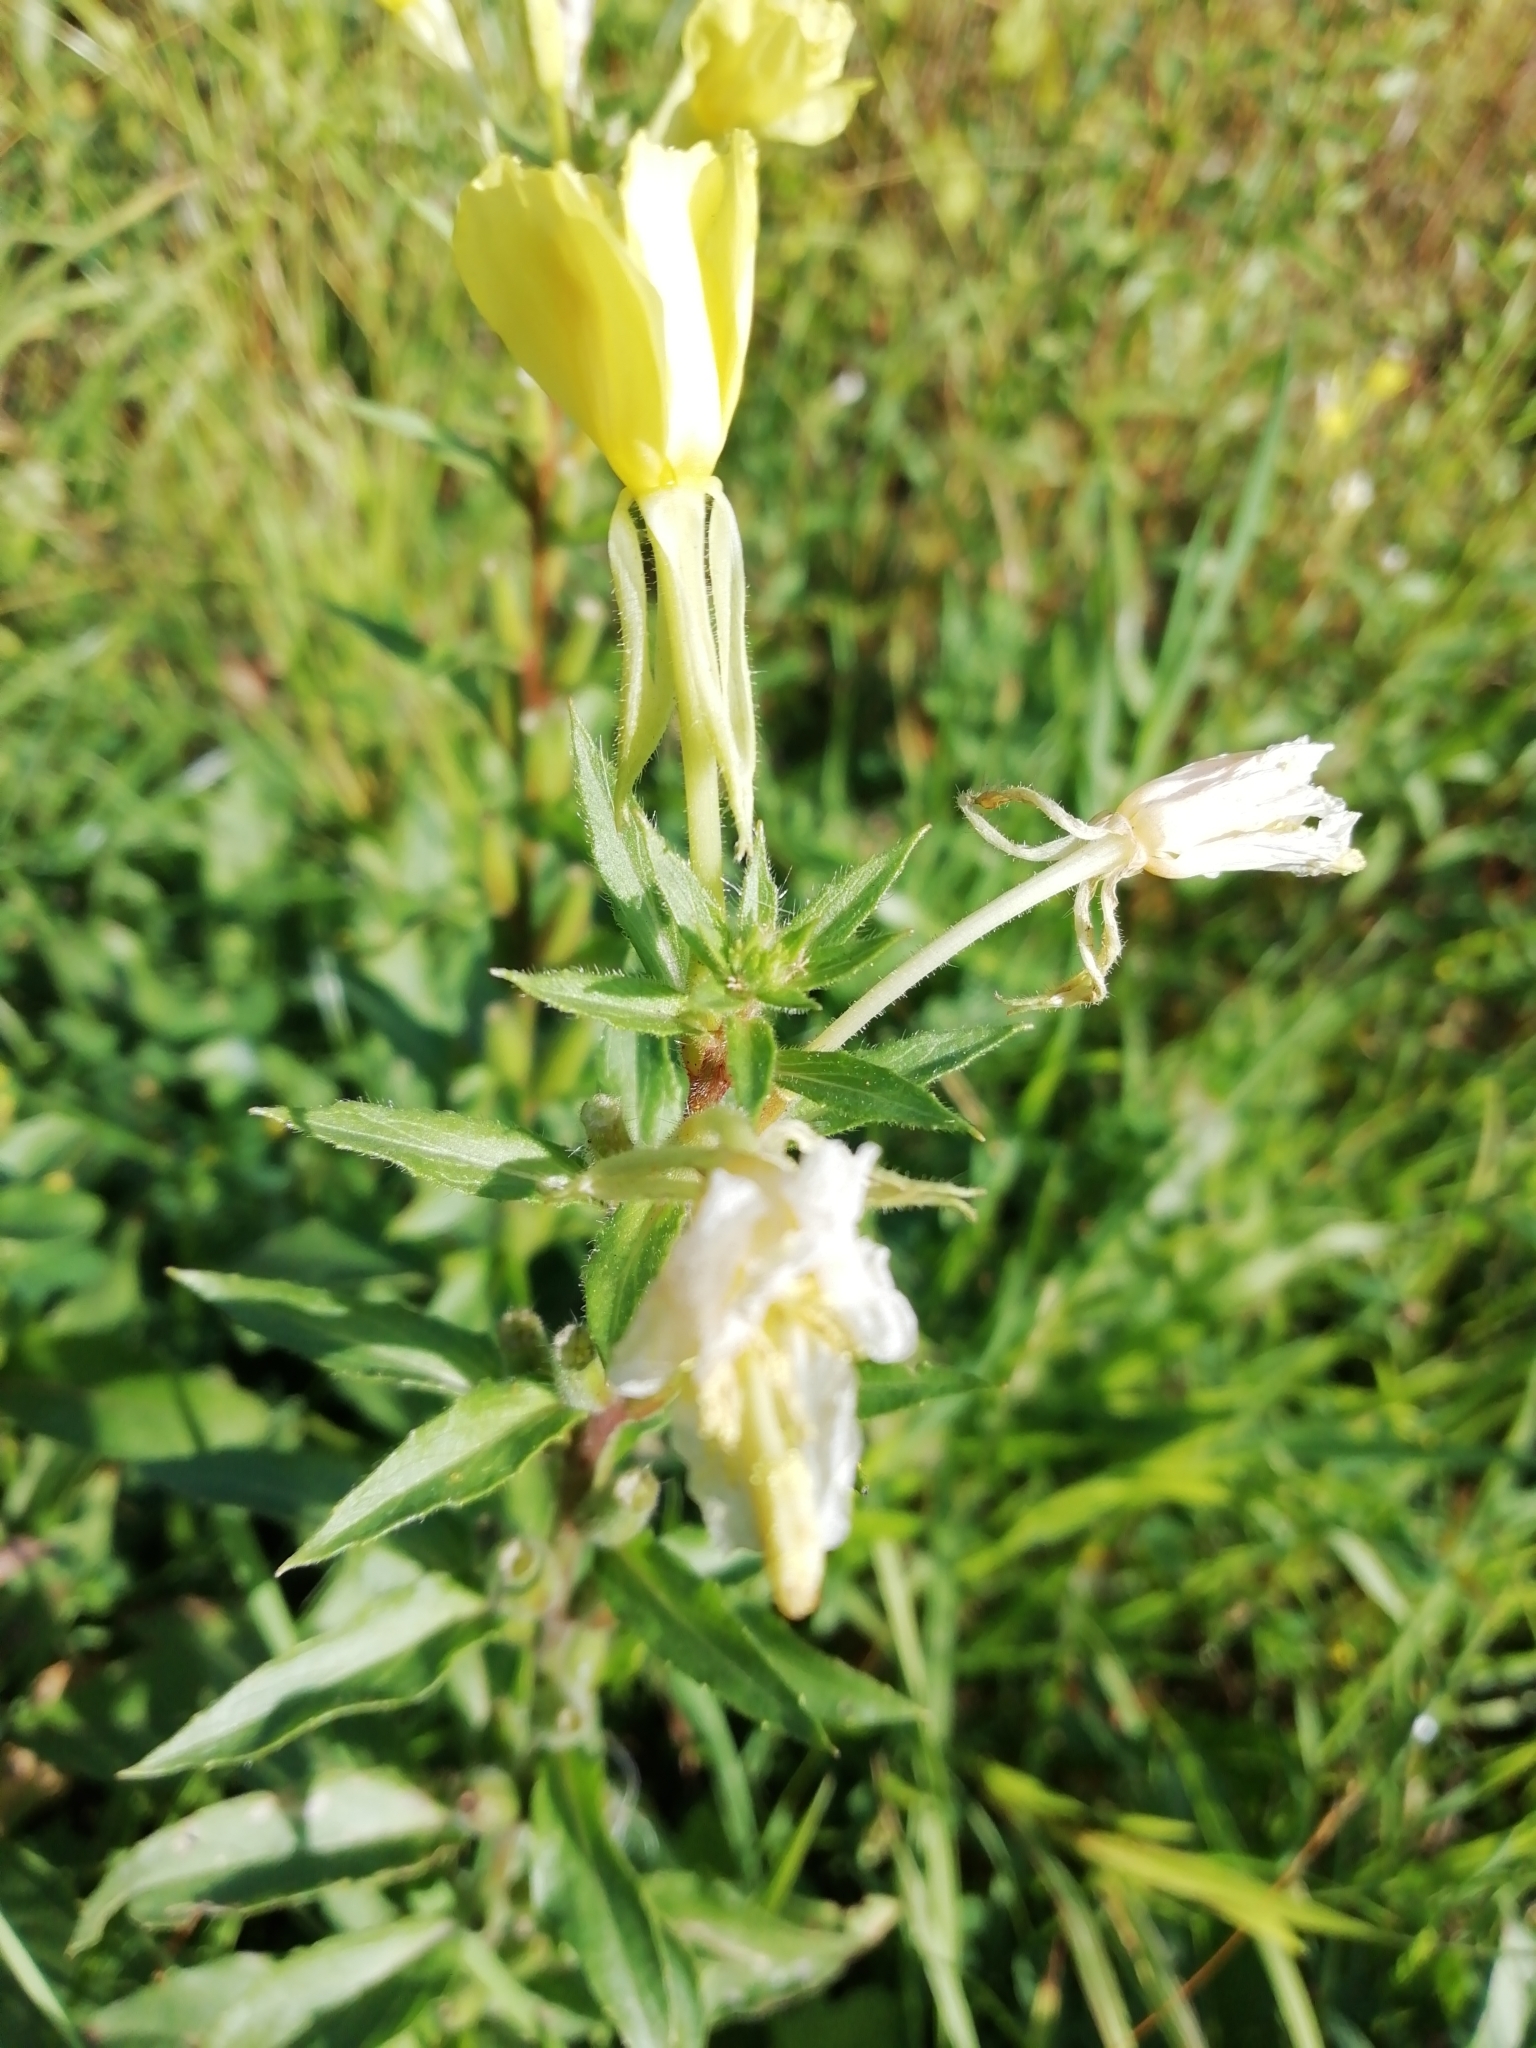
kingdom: Plantae
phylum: Tracheophyta
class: Magnoliopsida
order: Myrtales
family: Onagraceae
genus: Oenothera
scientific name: Oenothera rubricaulis
